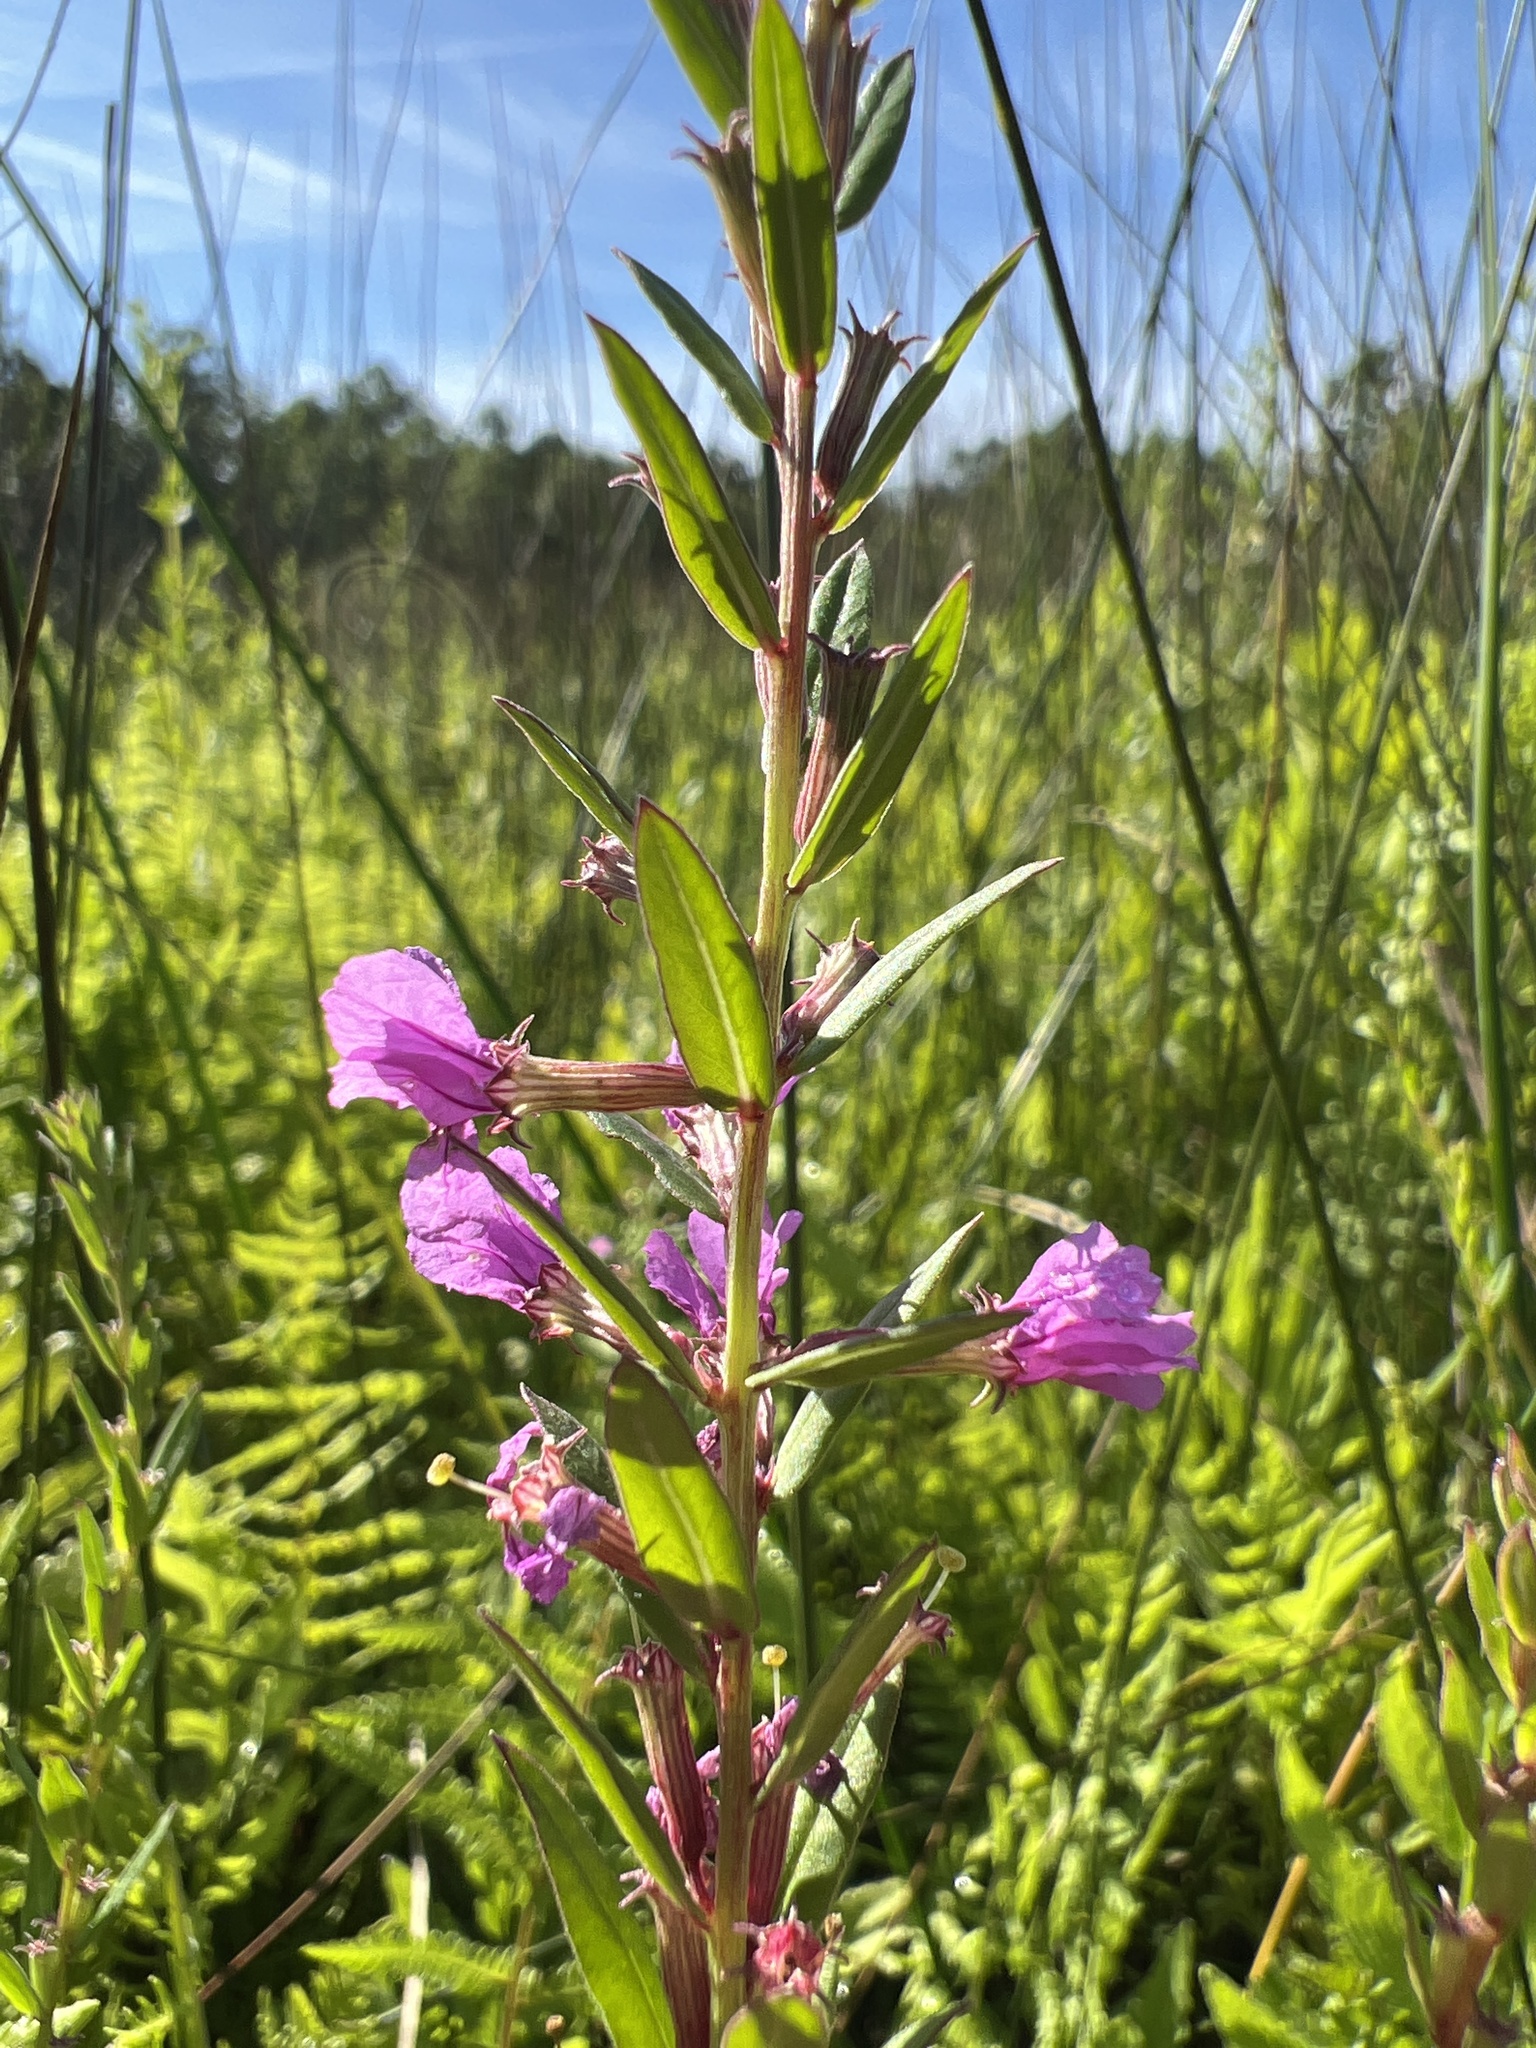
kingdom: Plantae
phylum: Tracheophyta
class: Magnoliopsida
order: Myrtales
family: Lythraceae
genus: Lythrum
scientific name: Lythrum alatum
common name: Winged loosestrife
